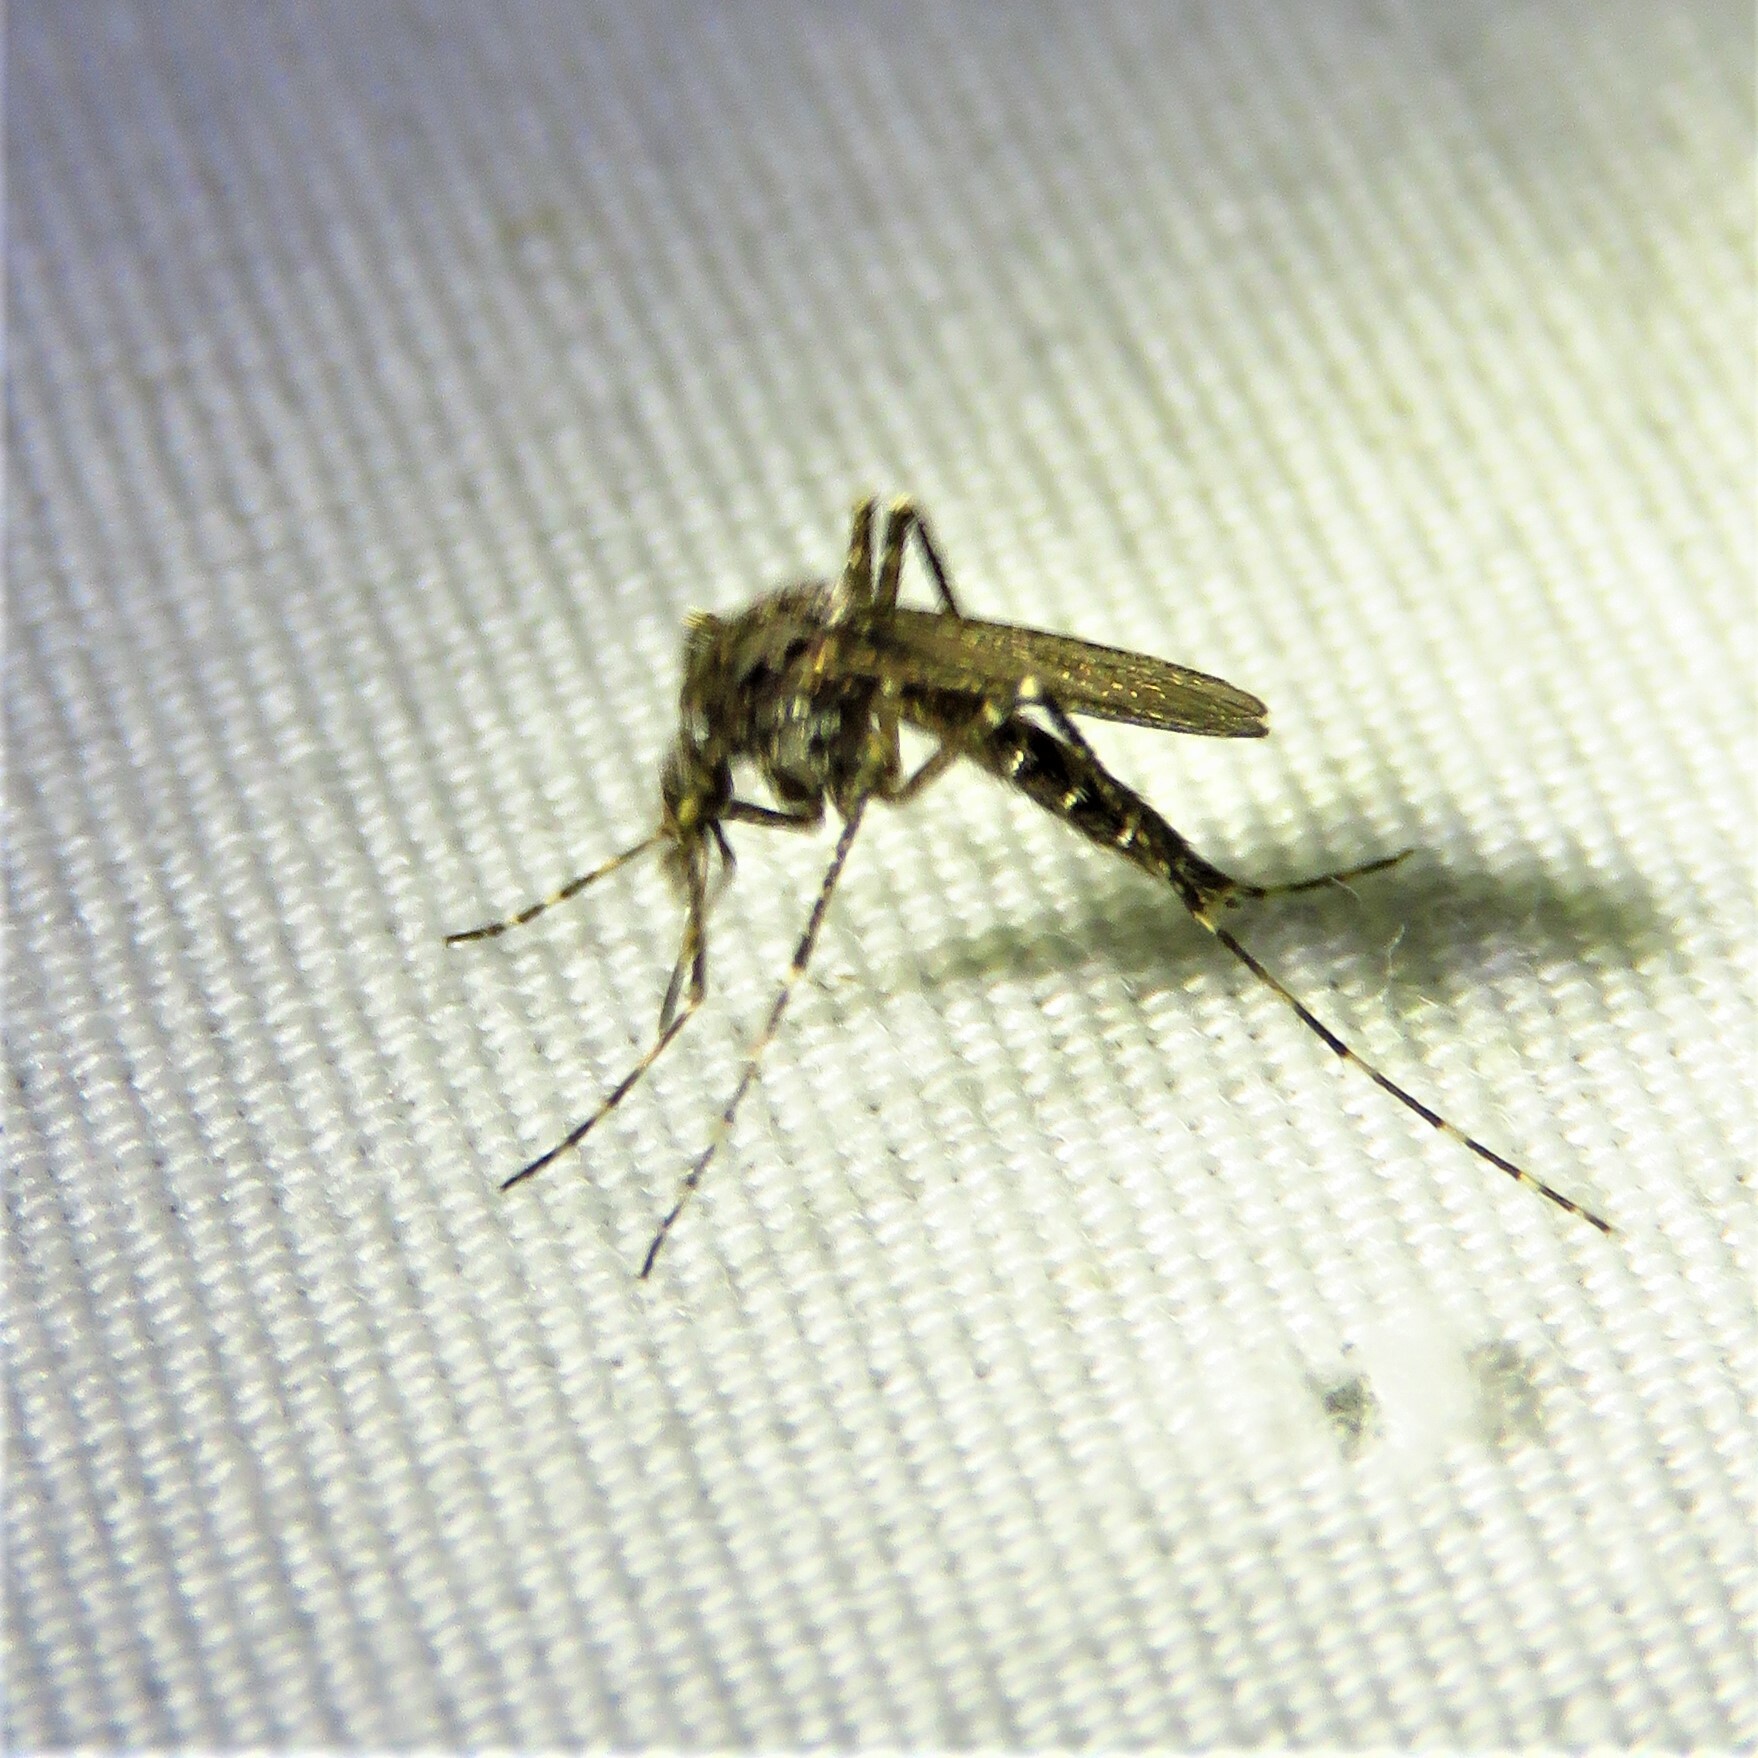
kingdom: Animalia
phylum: Arthropoda
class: Insecta
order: Diptera
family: Culicidae
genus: Psorophora
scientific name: Psorophora columbiae
